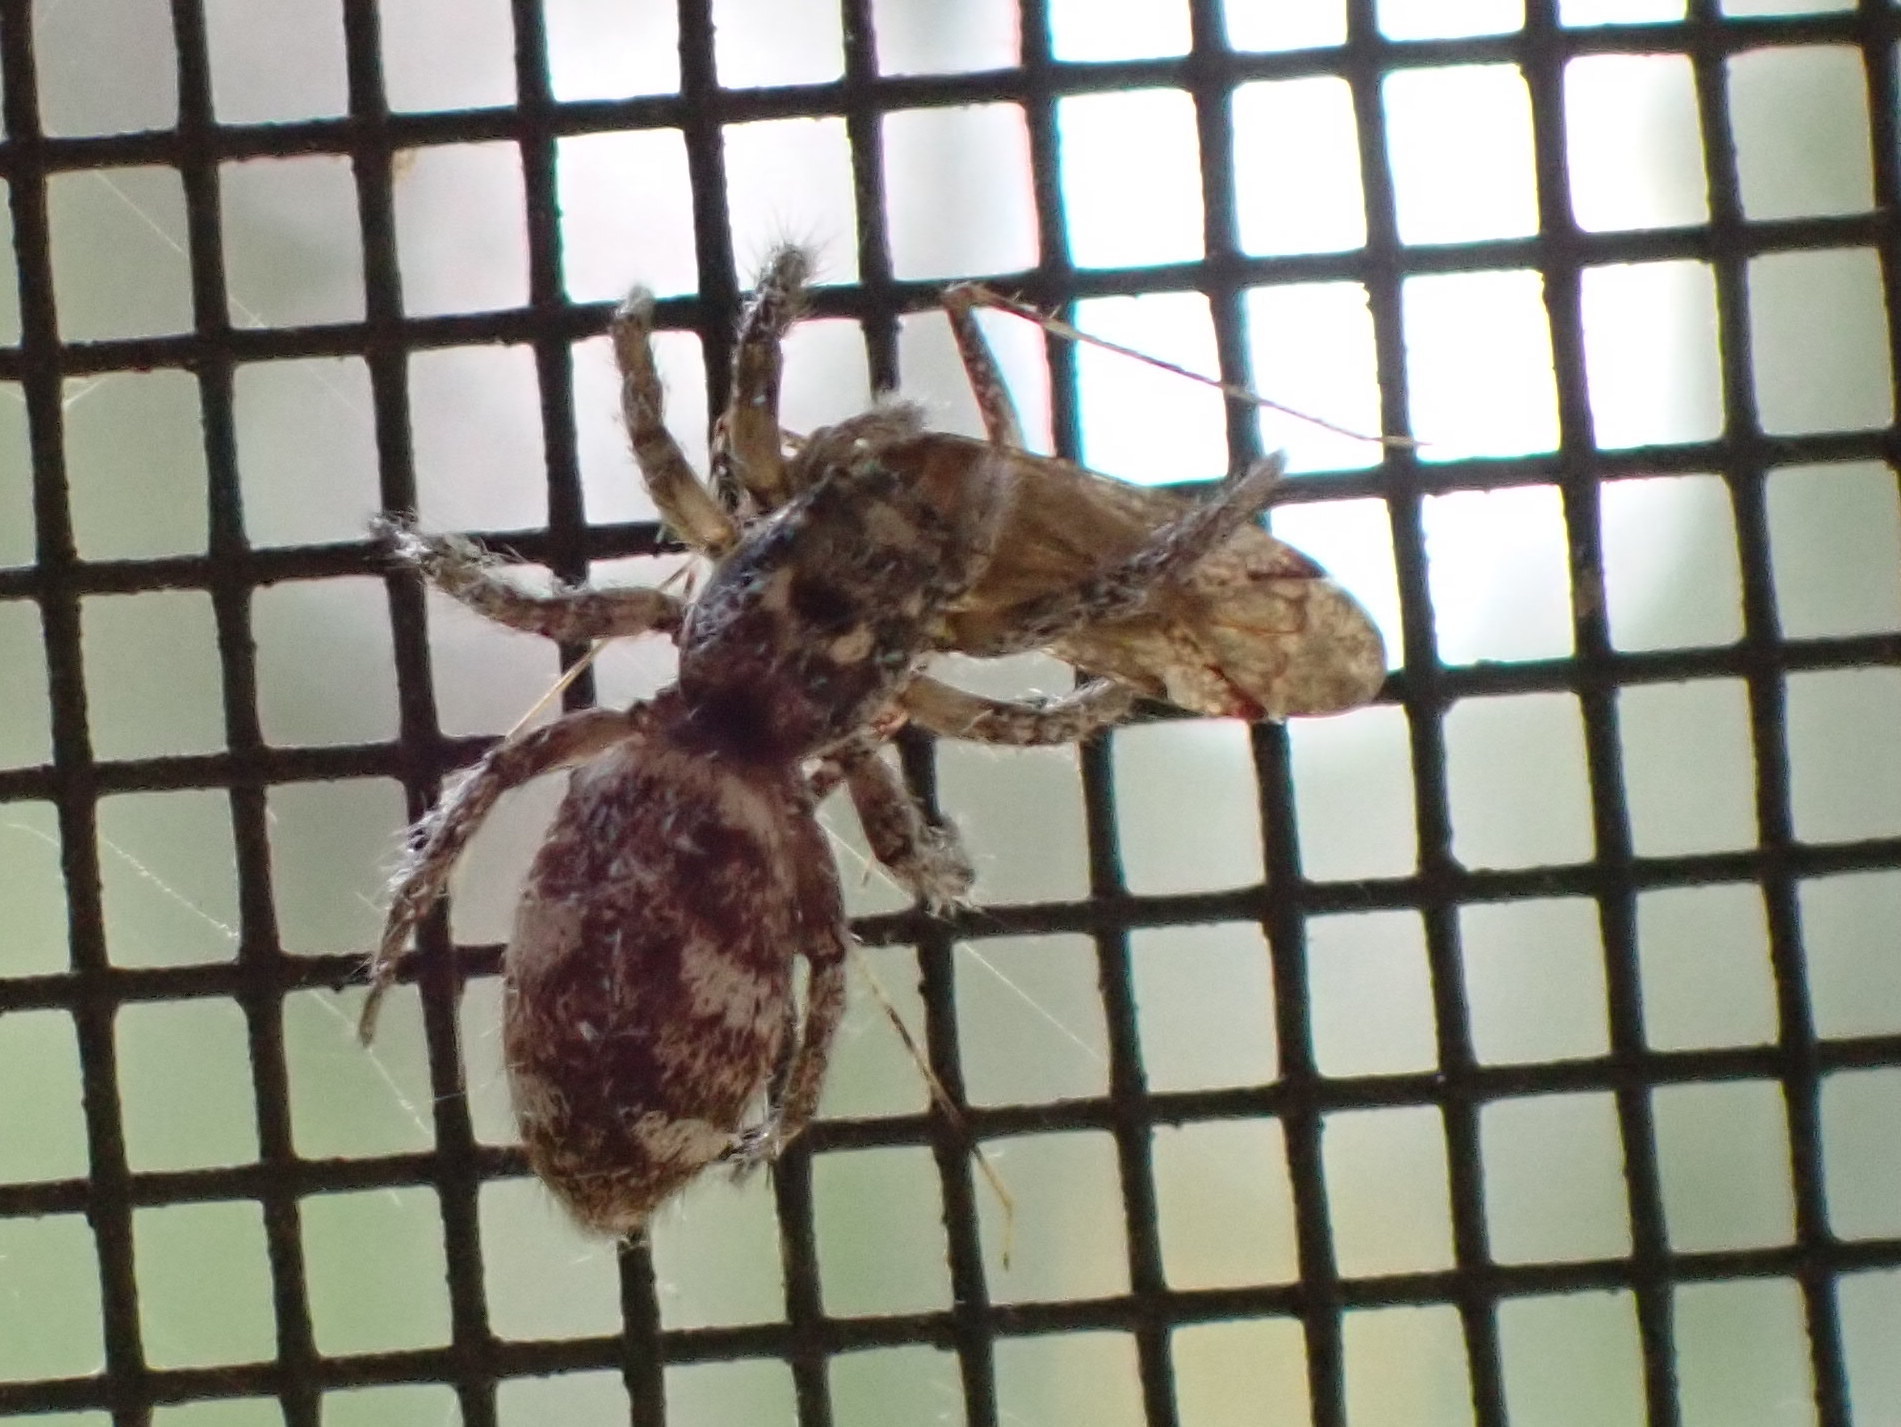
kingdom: Animalia
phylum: Arthropoda
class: Arachnida
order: Araneae
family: Salticidae
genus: Salticus
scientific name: Salticus scenicus
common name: Zebra jumper
